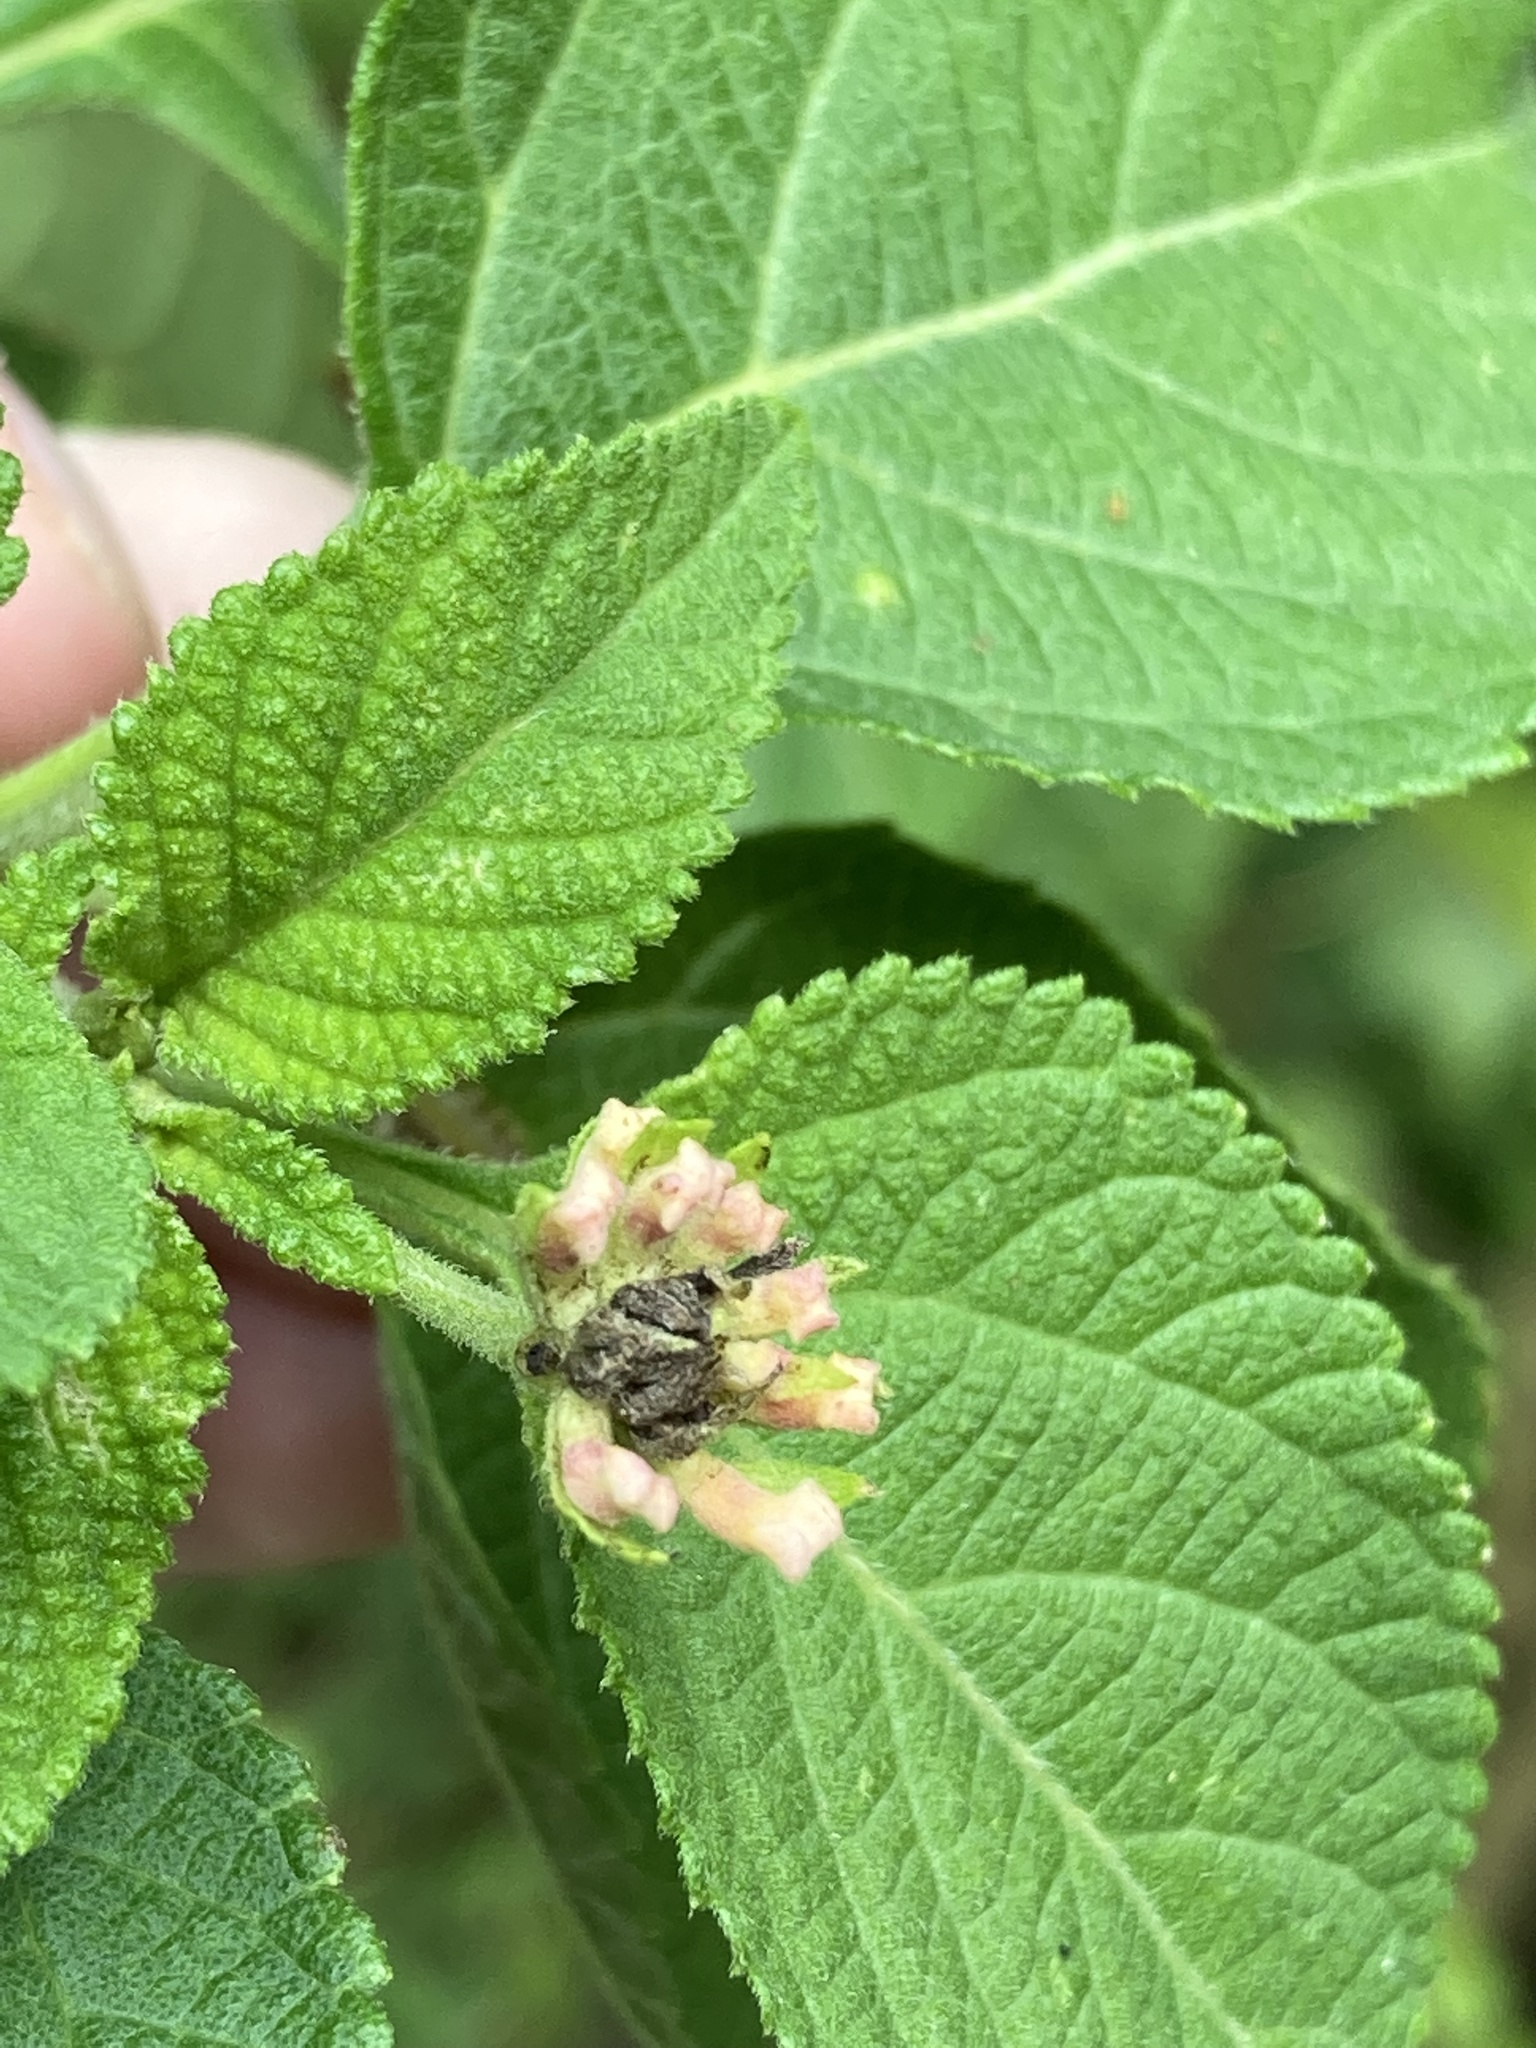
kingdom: Plantae
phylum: Tracheophyta
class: Magnoliopsida
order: Lamiales
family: Verbenaceae
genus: Lantana
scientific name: Lantana strigocamara
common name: Lantana
